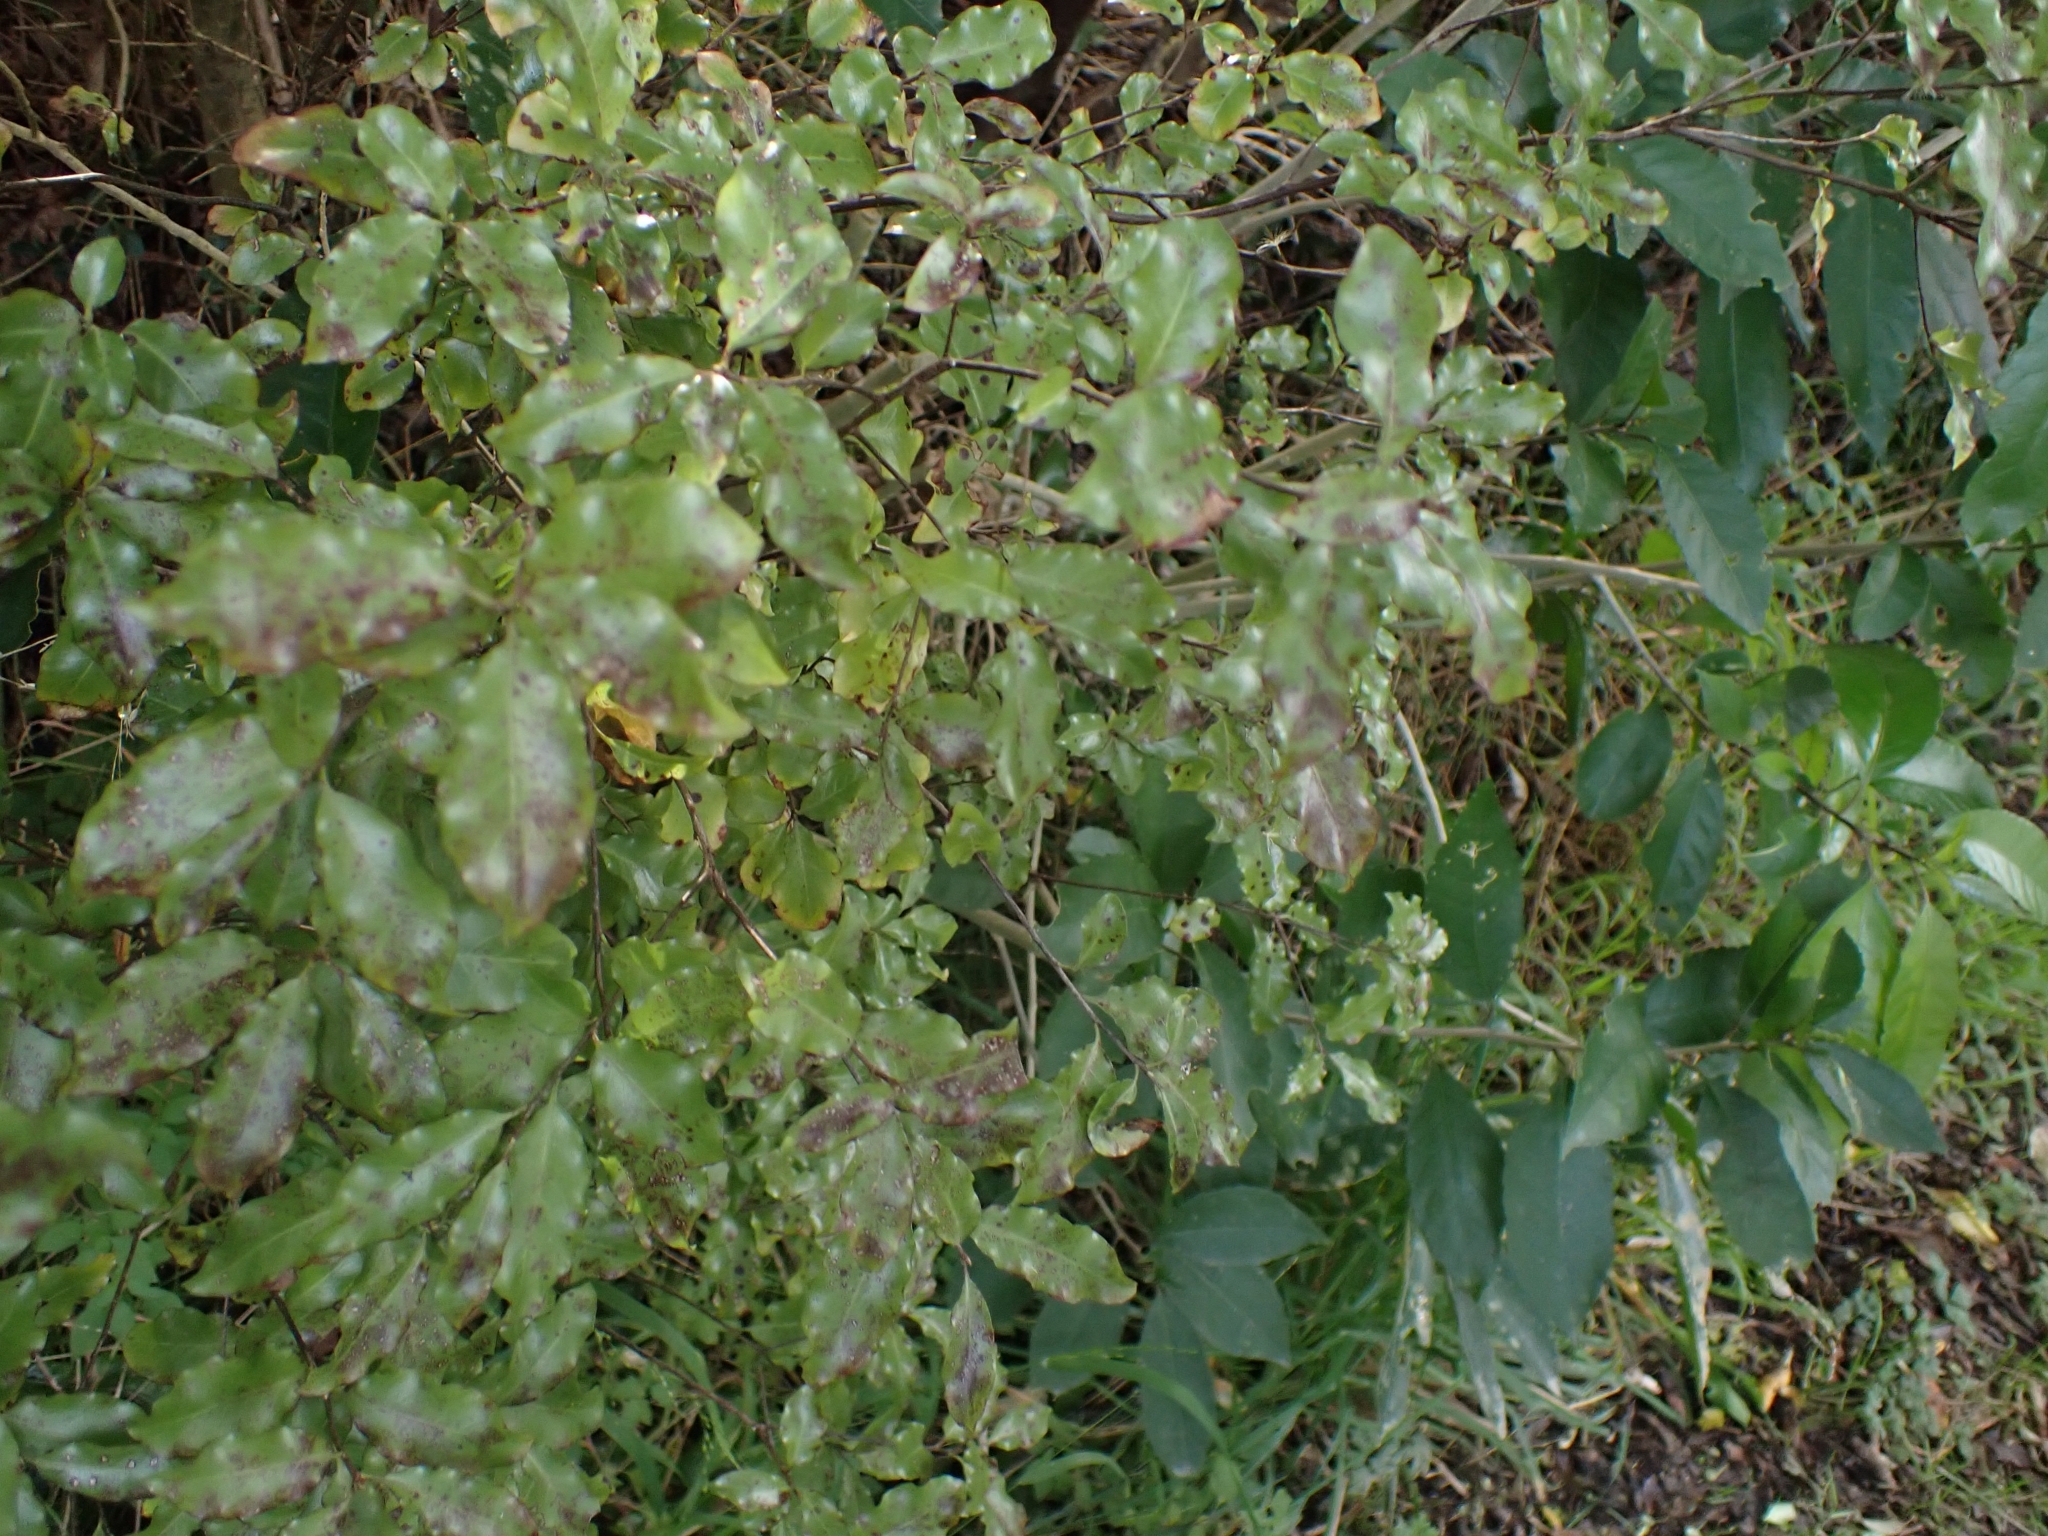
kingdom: Plantae
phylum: Tracheophyta
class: Magnoliopsida
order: Apiales
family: Pittosporaceae
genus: Pittosporum
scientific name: Pittosporum tenuifolium
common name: Kohuhu
